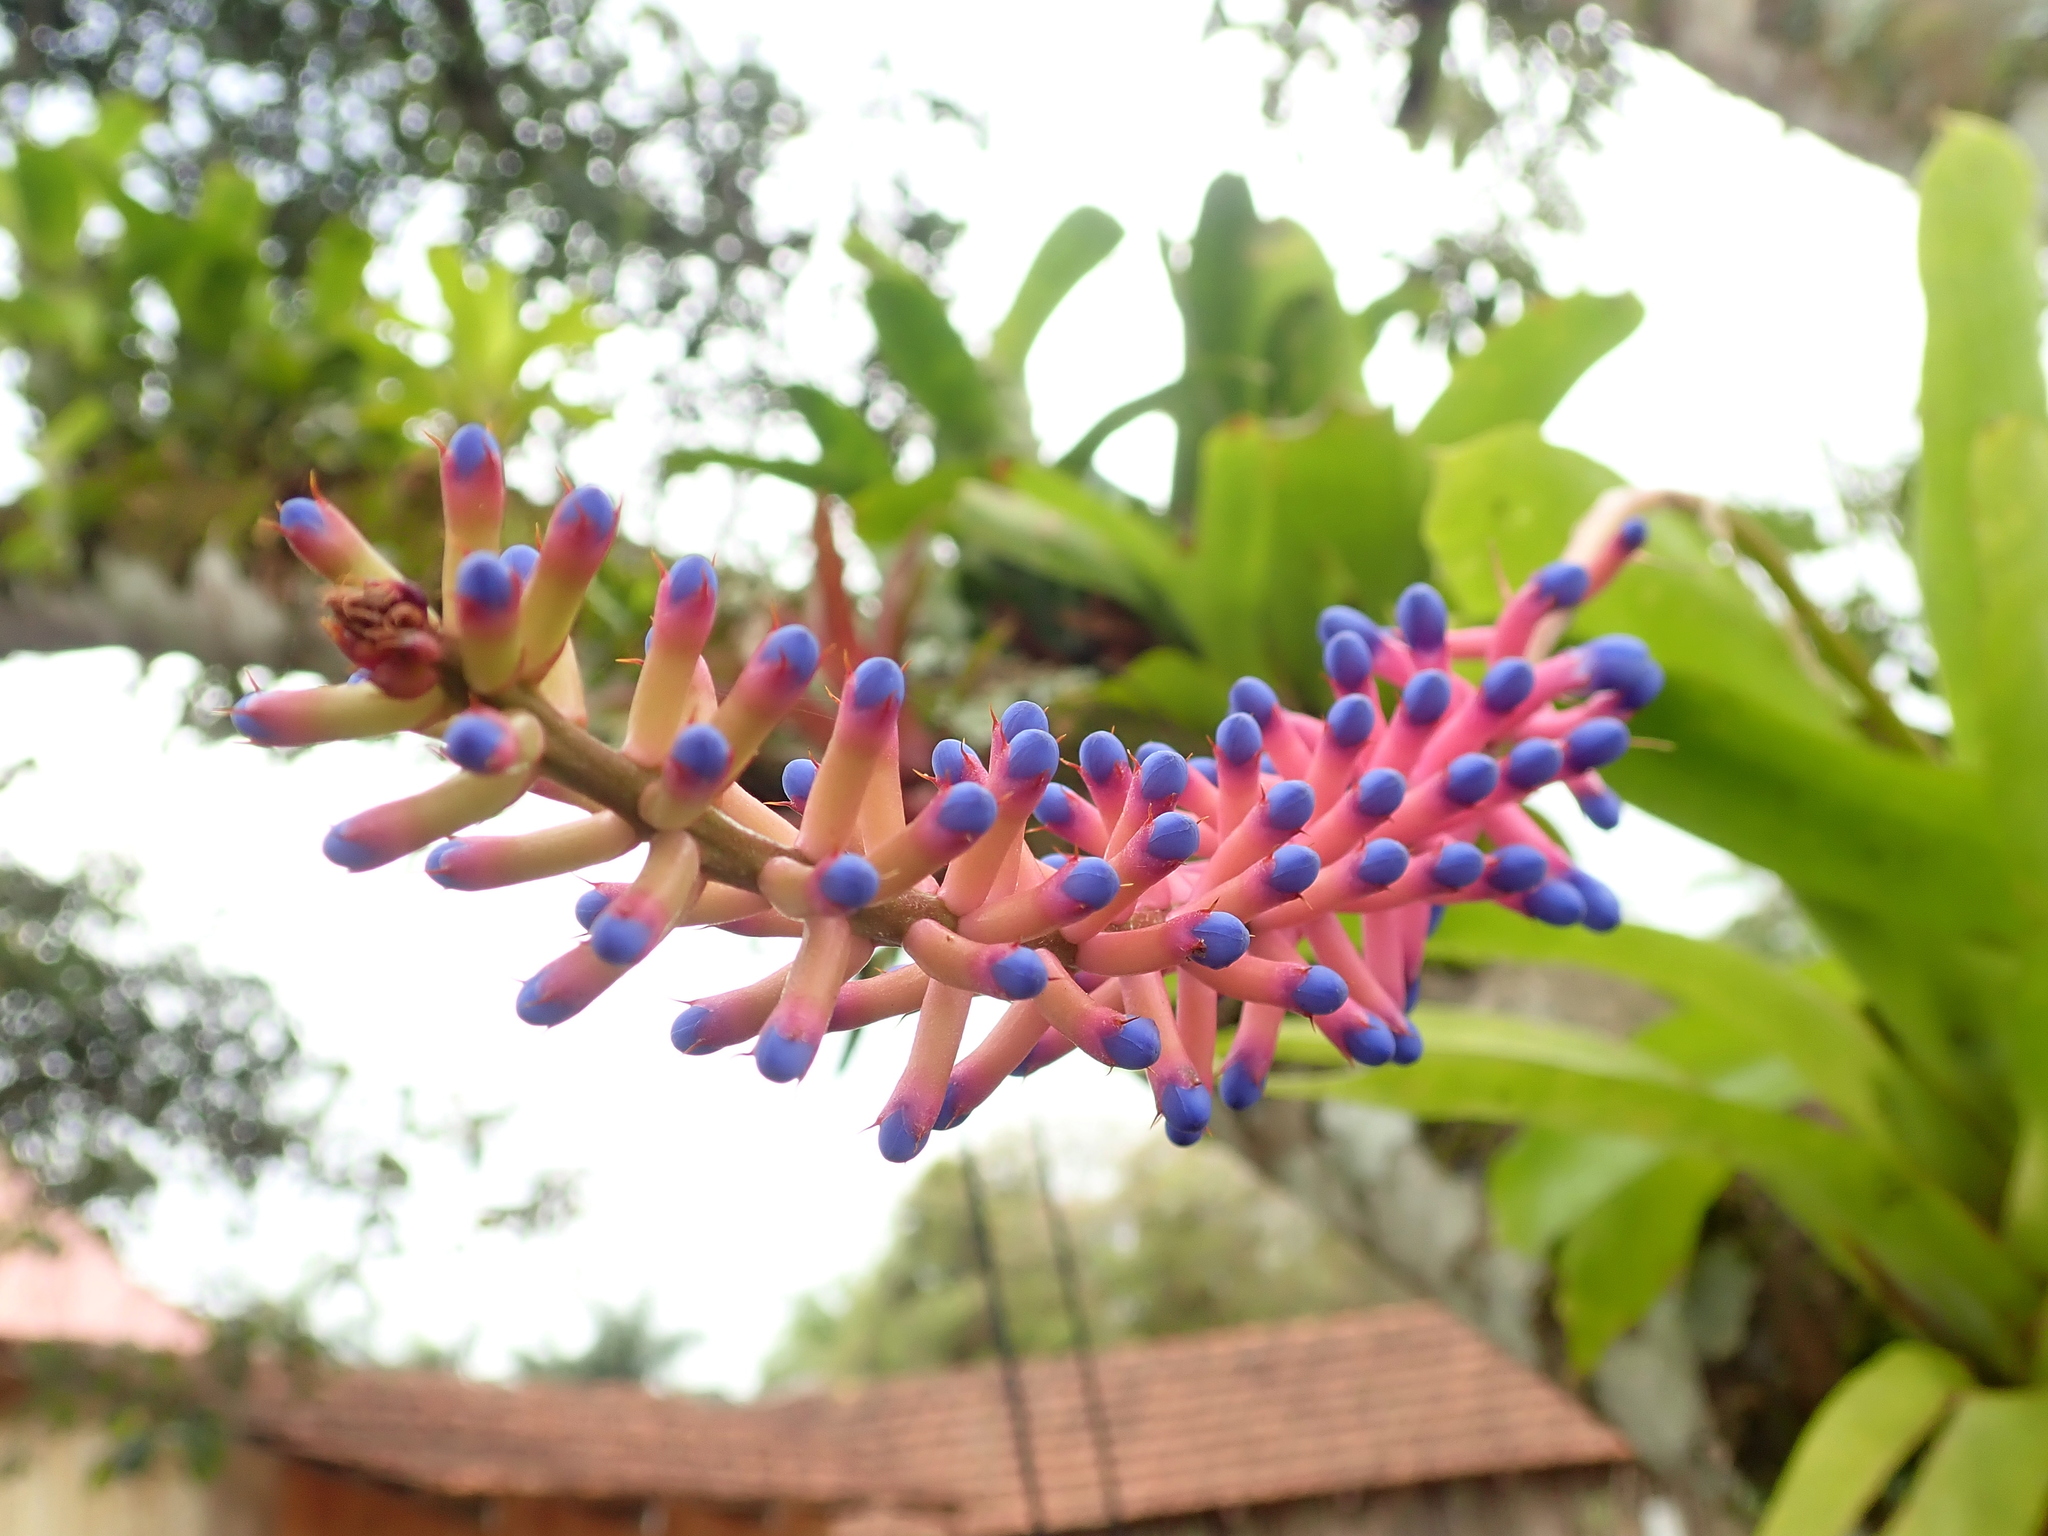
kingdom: Plantae
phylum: Tracheophyta
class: Liliopsida
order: Poales
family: Bromeliaceae
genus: Aechmea
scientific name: Aechmea gamosepala
